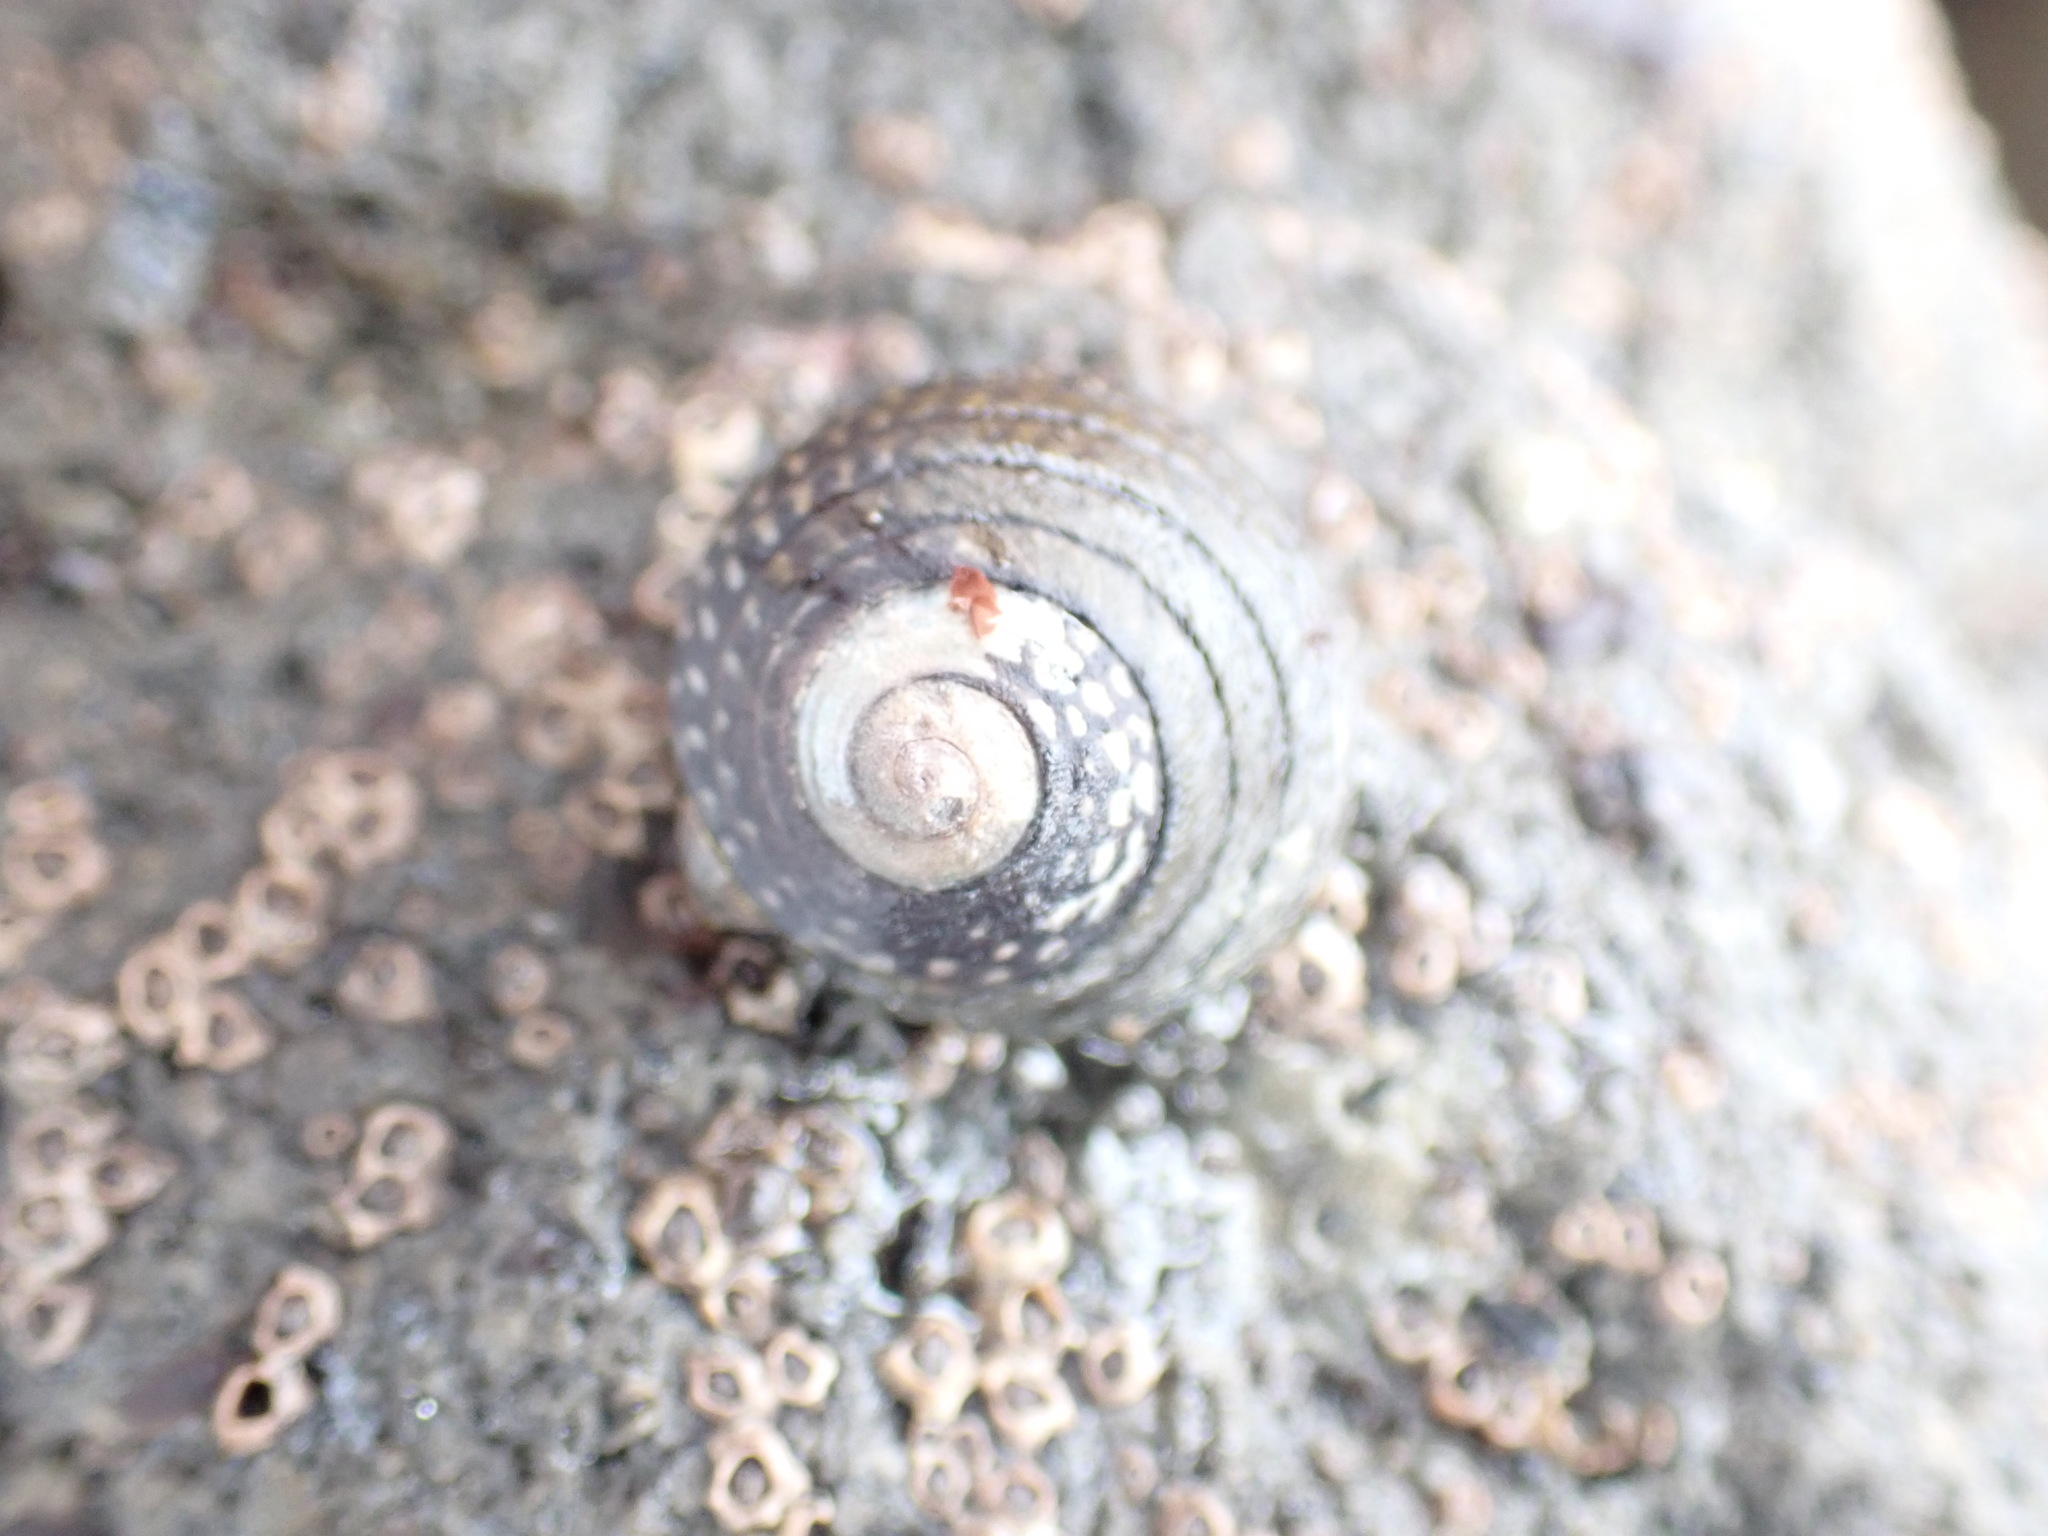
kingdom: Animalia
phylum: Mollusca
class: Gastropoda
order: Trochida
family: Trochidae
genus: Diloma
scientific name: Diloma aethiops
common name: Scorched monodont
